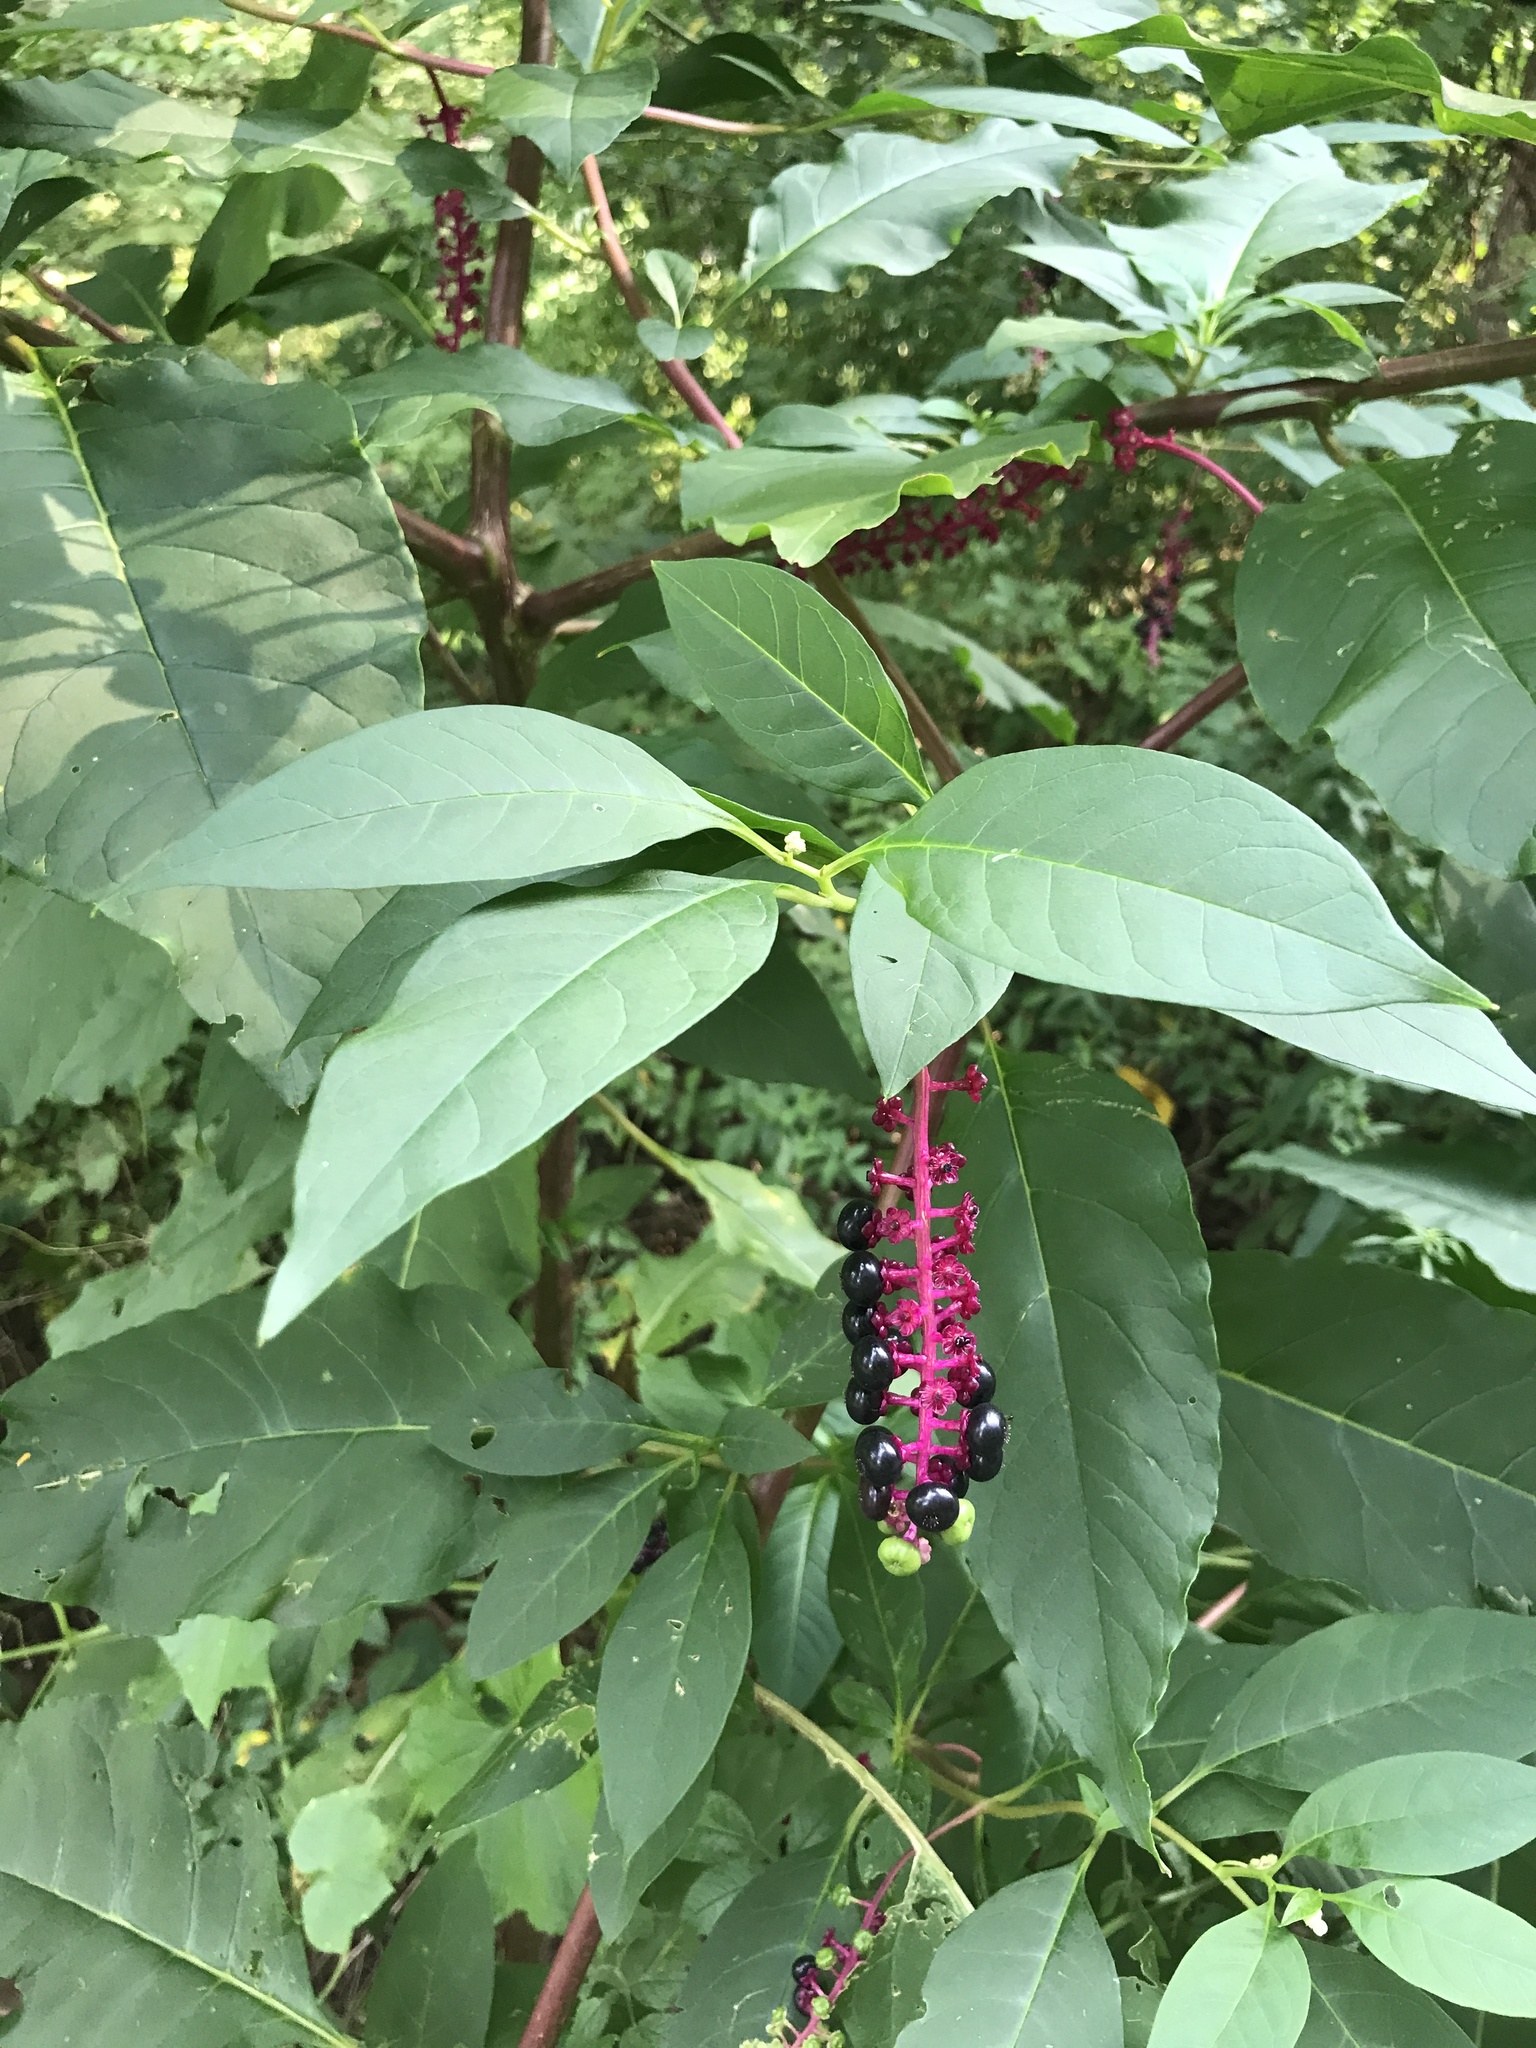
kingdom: Plantae
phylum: Tracheophyta
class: Magnoliopsida
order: Caryophyllales
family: Phytolaccaceae
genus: Phytolacca
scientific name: Phytolacca americana
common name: American pokeweed
